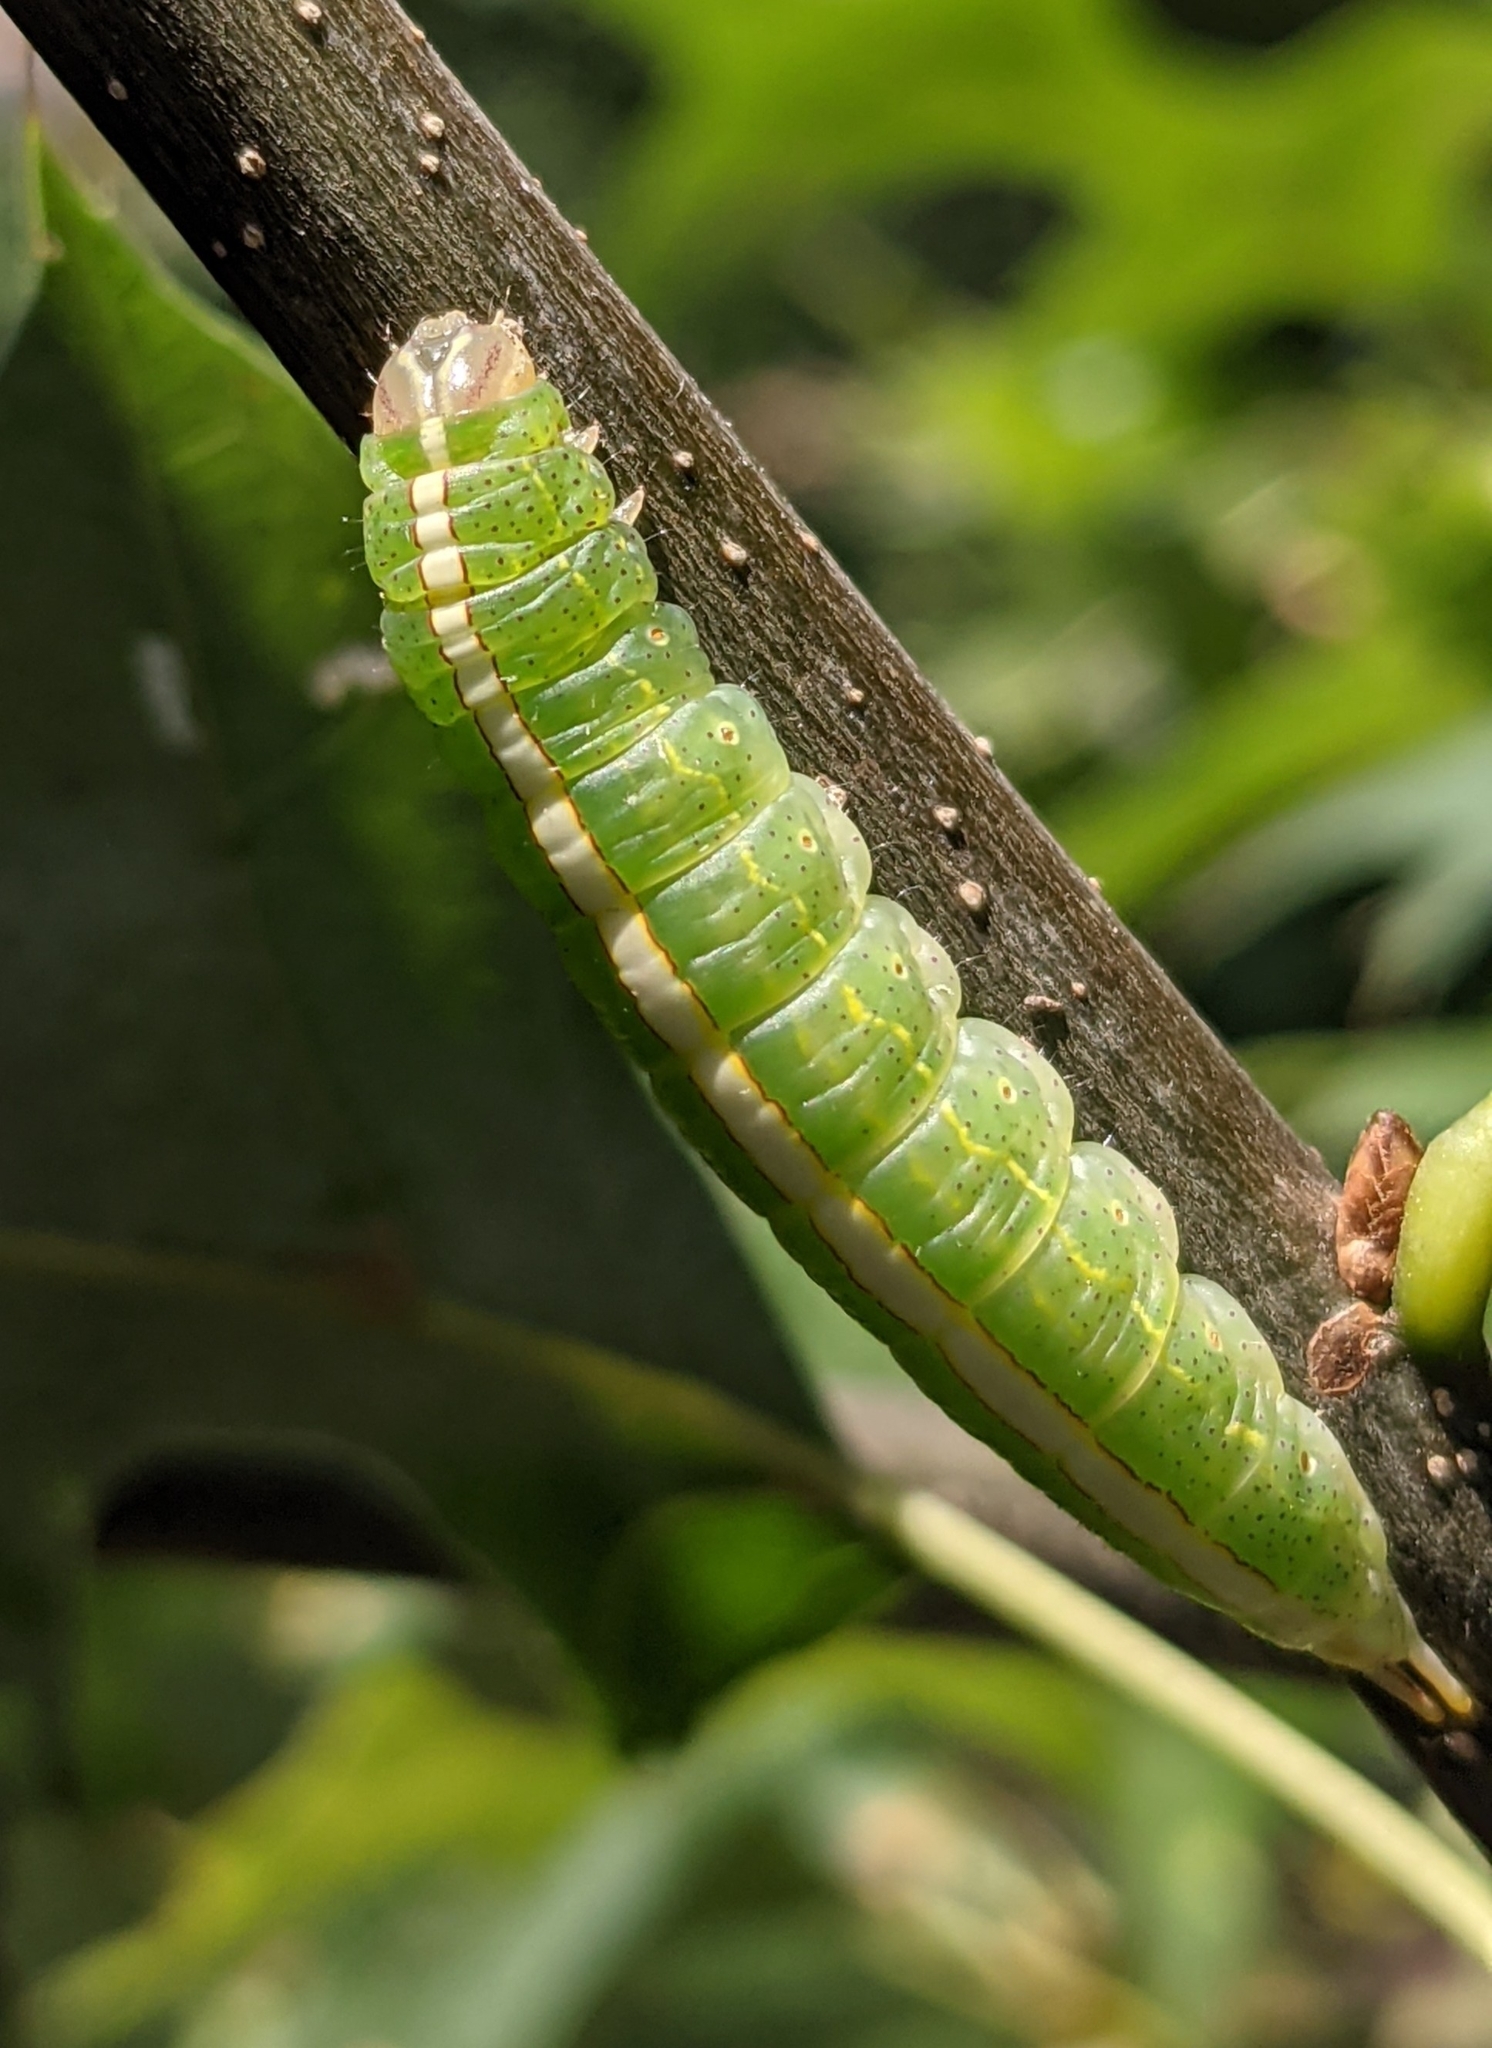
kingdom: Animalia
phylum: Arthropoda
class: Insecta
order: Lepidoptera
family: Notodontidae
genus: Misogada
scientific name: Misogada unicolor
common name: Drab prominent
